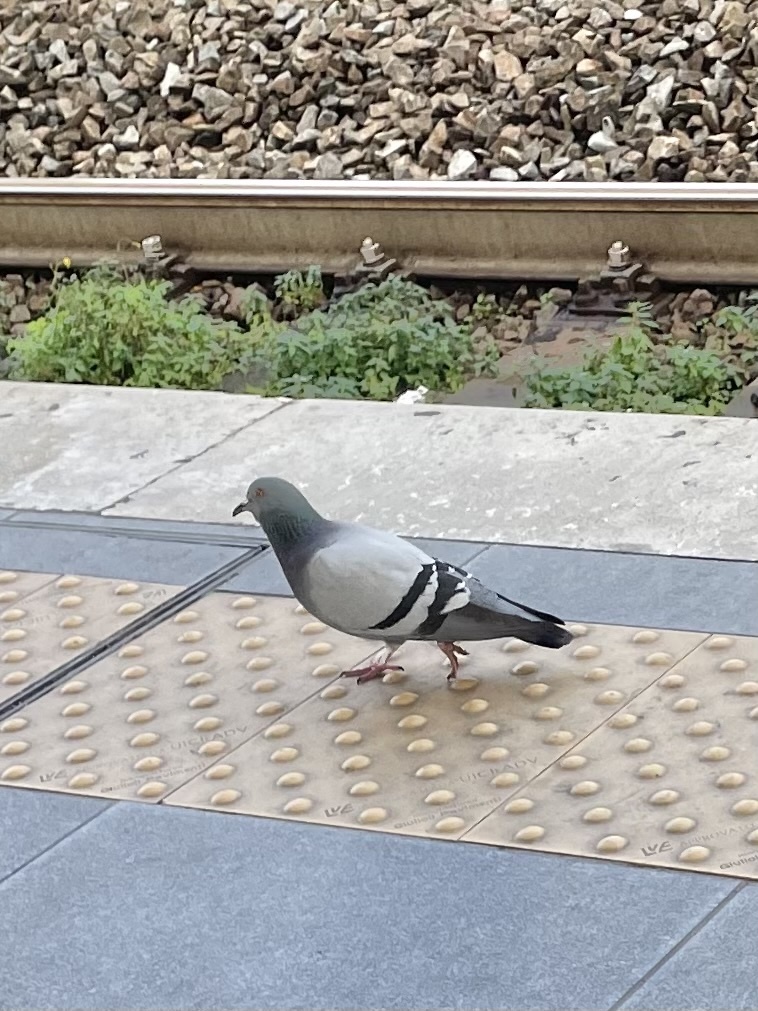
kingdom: Animalia
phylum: Chordata
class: Aves
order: Columbiformes
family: Columbidae
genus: Columba
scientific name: Columba livia
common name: Rock pigeon
